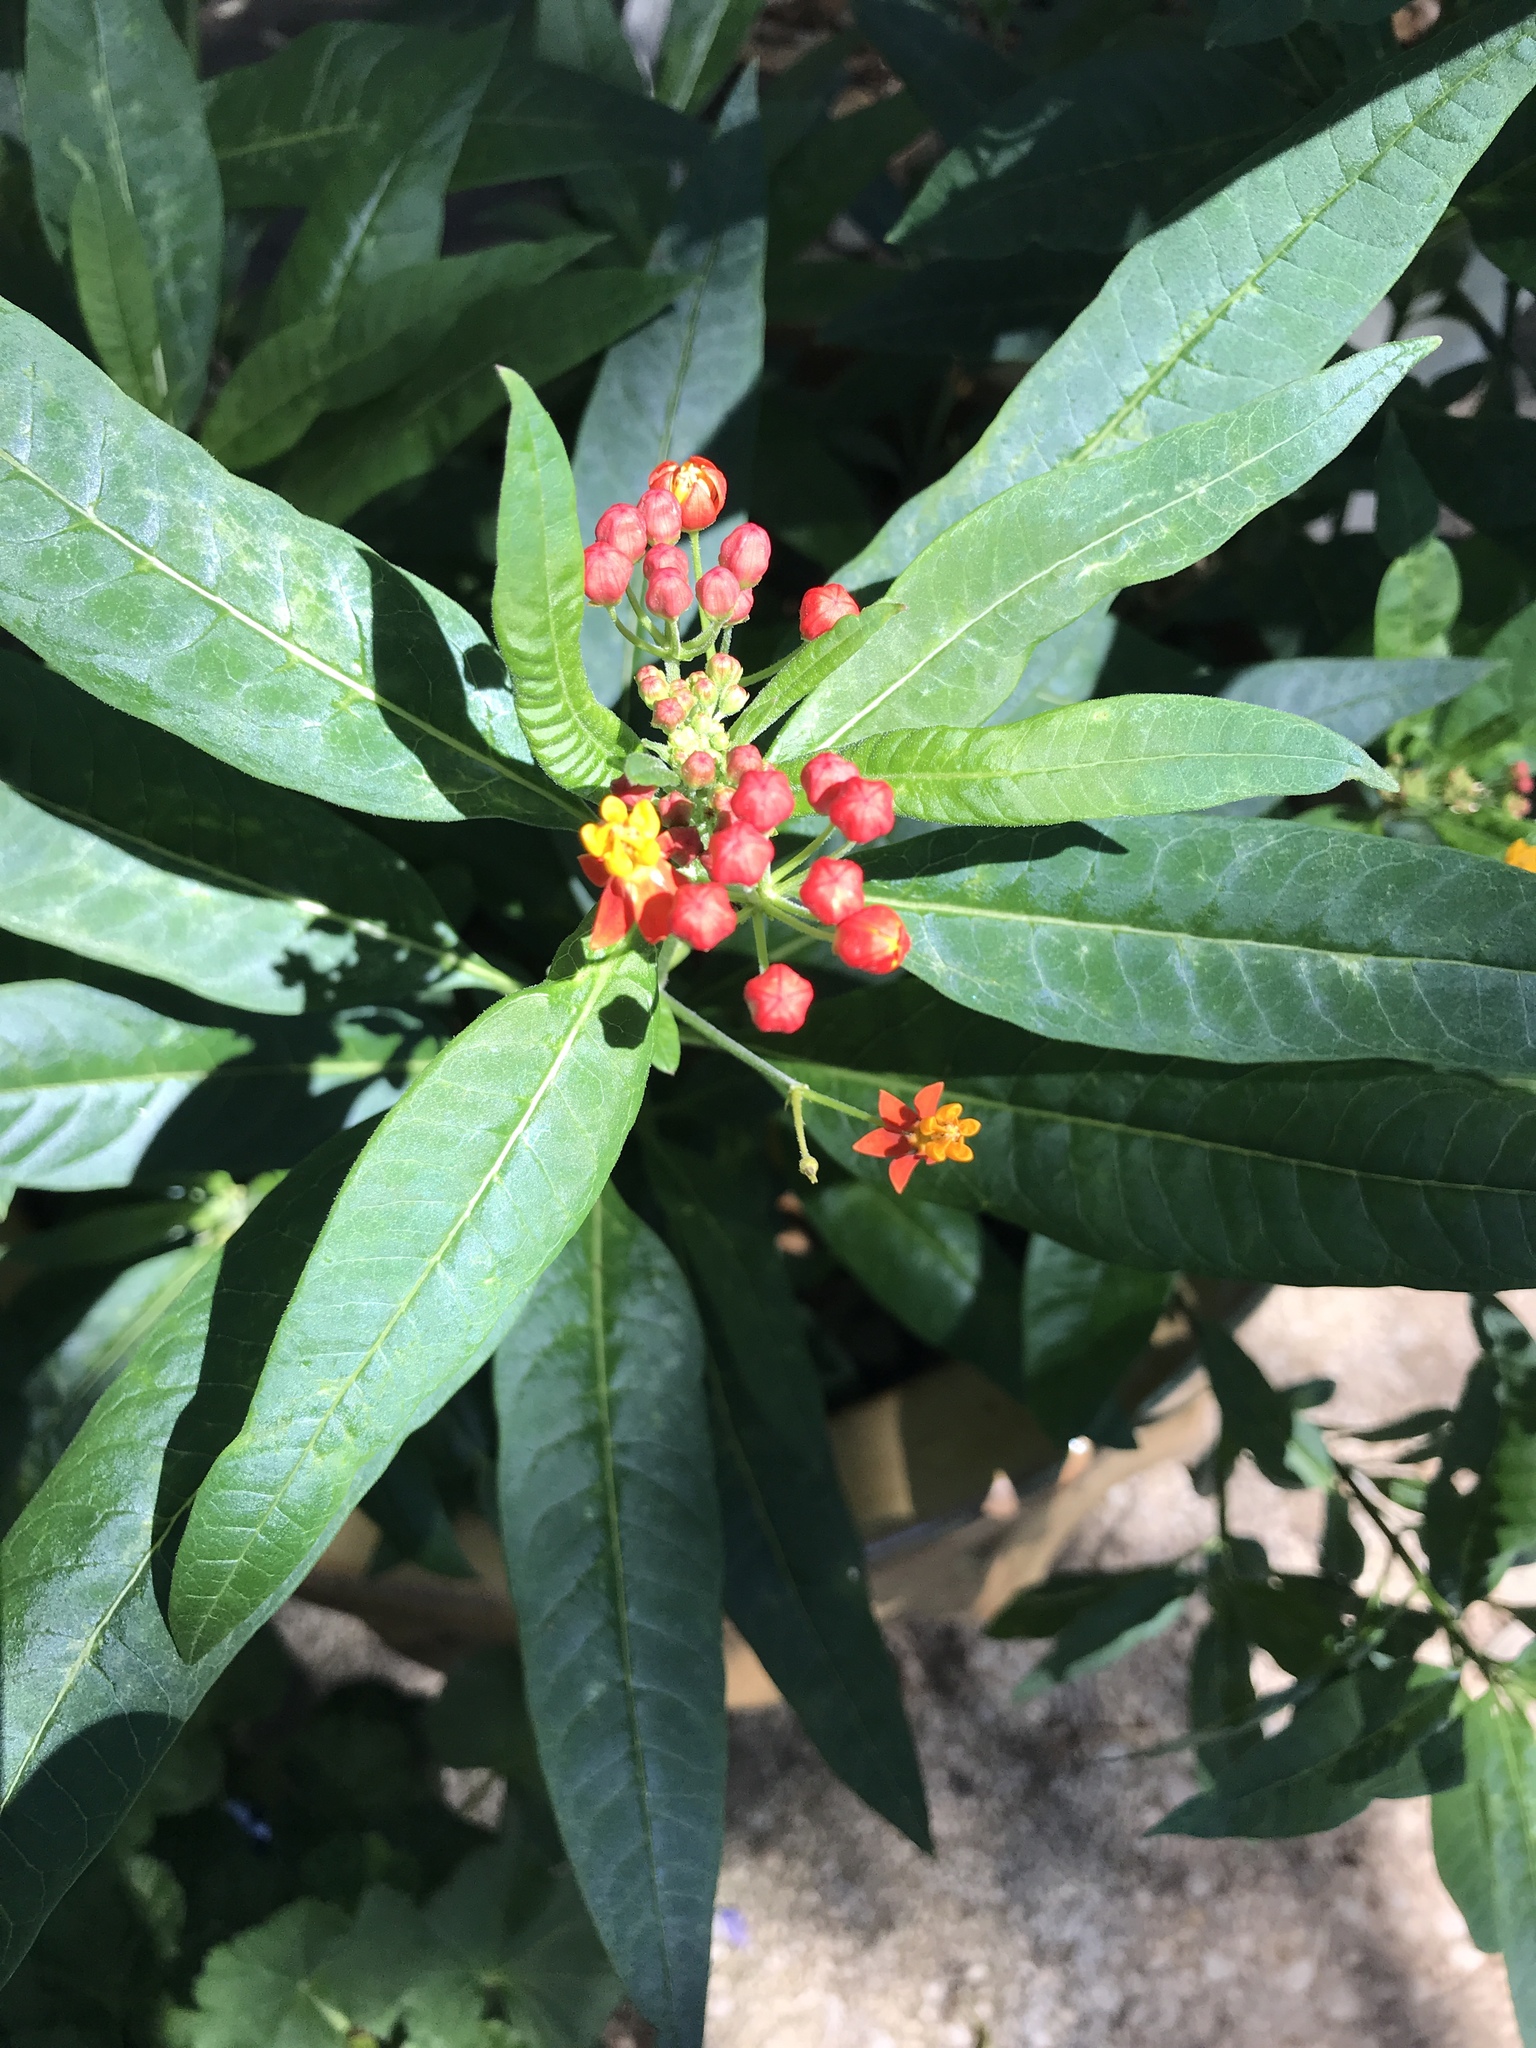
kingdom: Plantae
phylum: Tracheophyta
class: Magnoliopsida
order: Gentianales
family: Apocynaceae
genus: Asclepias
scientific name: Asclepias curassavica
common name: Bloodflower
